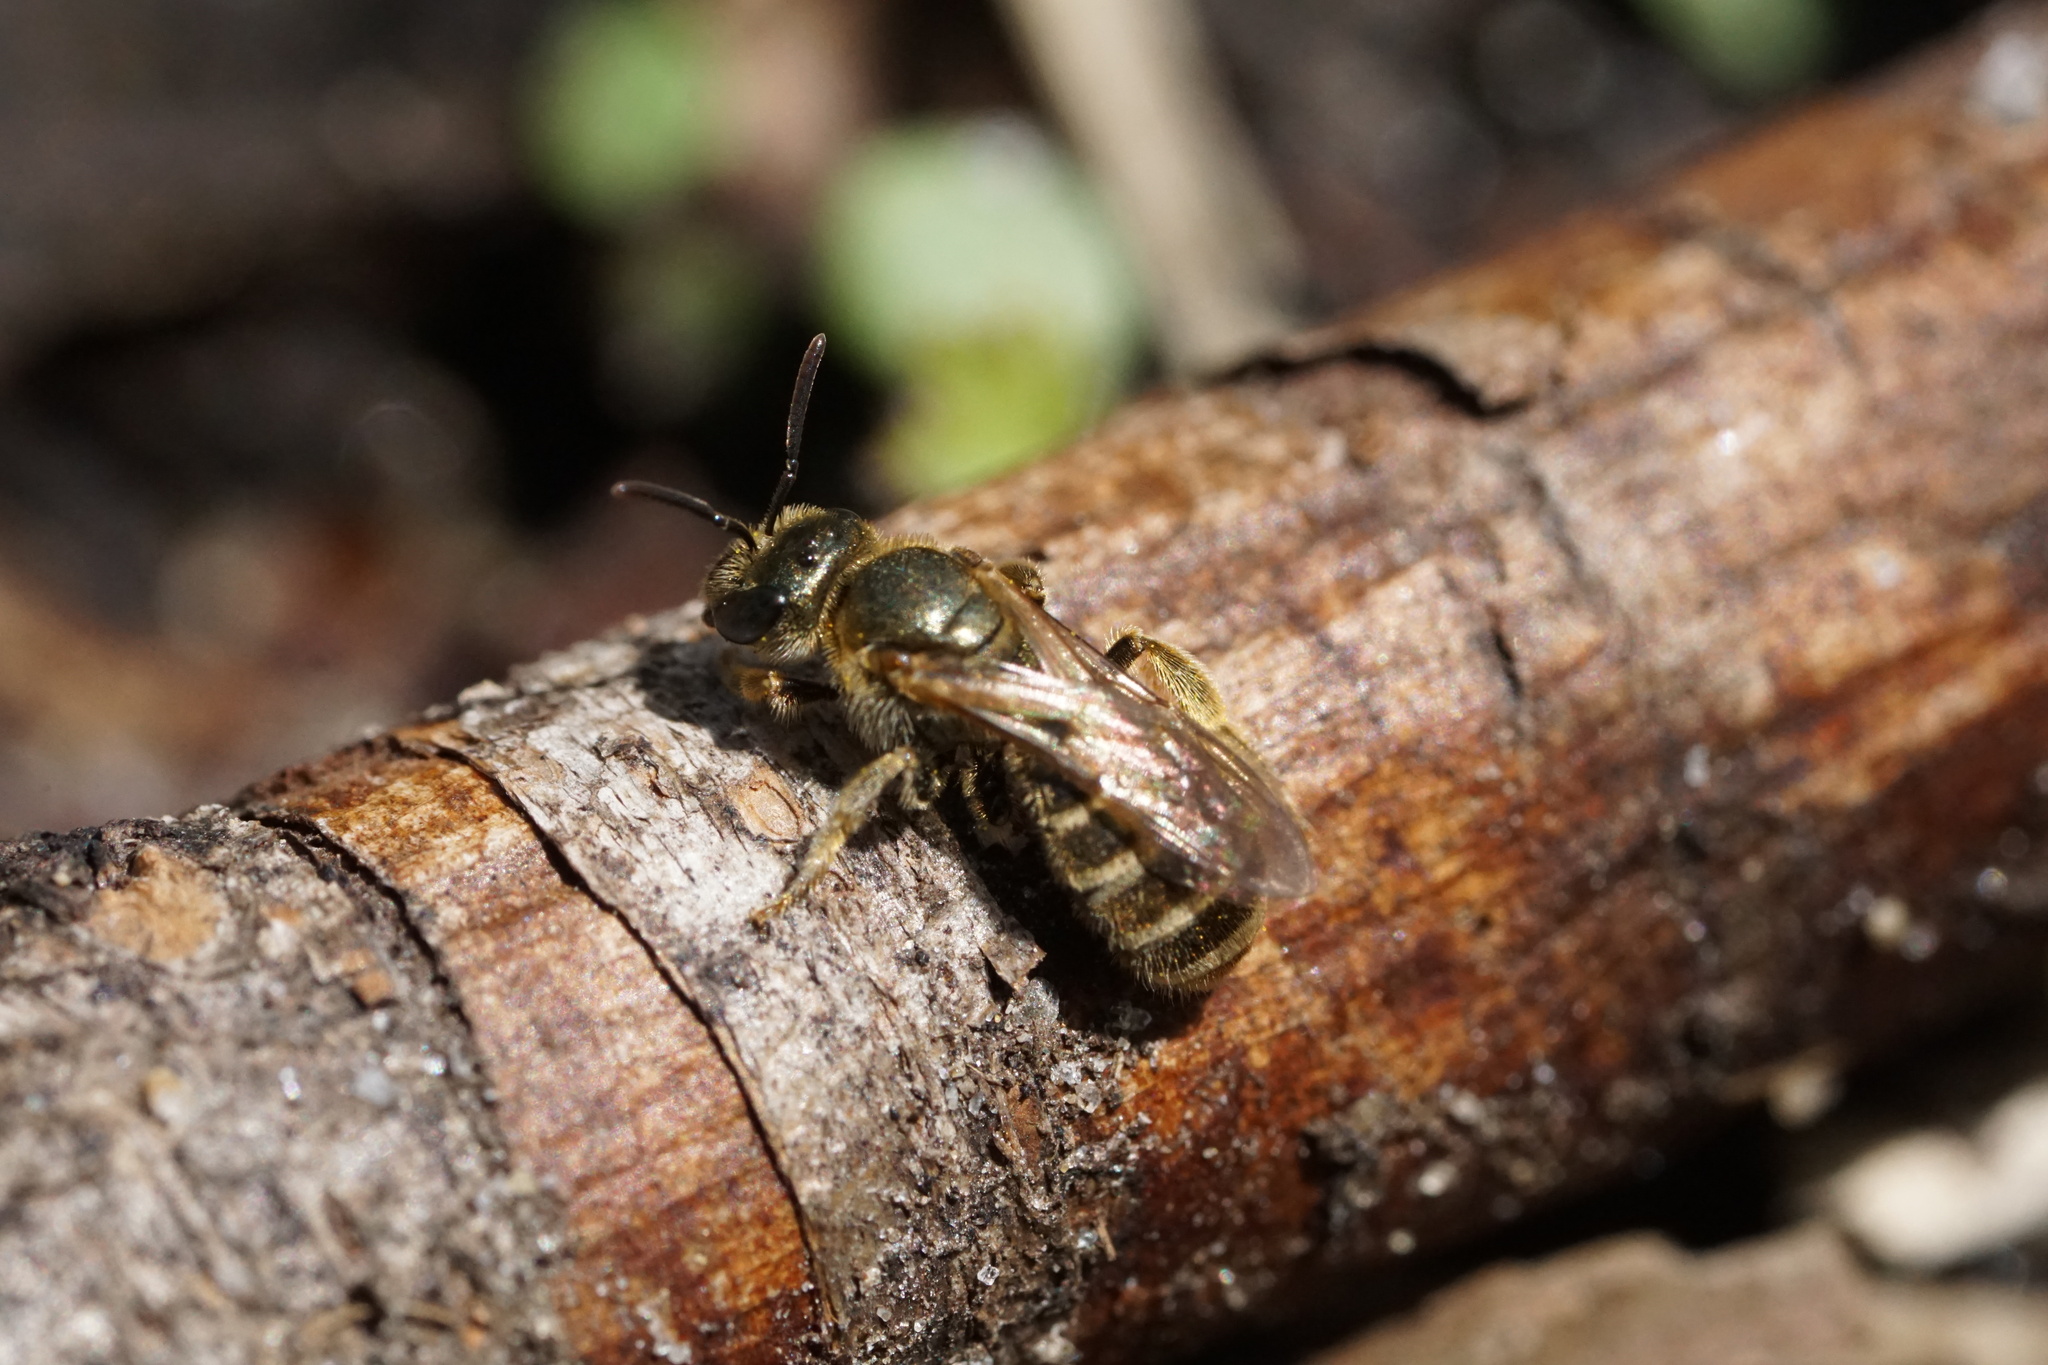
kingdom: Animalia
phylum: Arthropoda
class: Insecta
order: Hymenoptera
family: Halictidae
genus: Halictus
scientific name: Halictus confusus
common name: Southern bronze furrow bee
